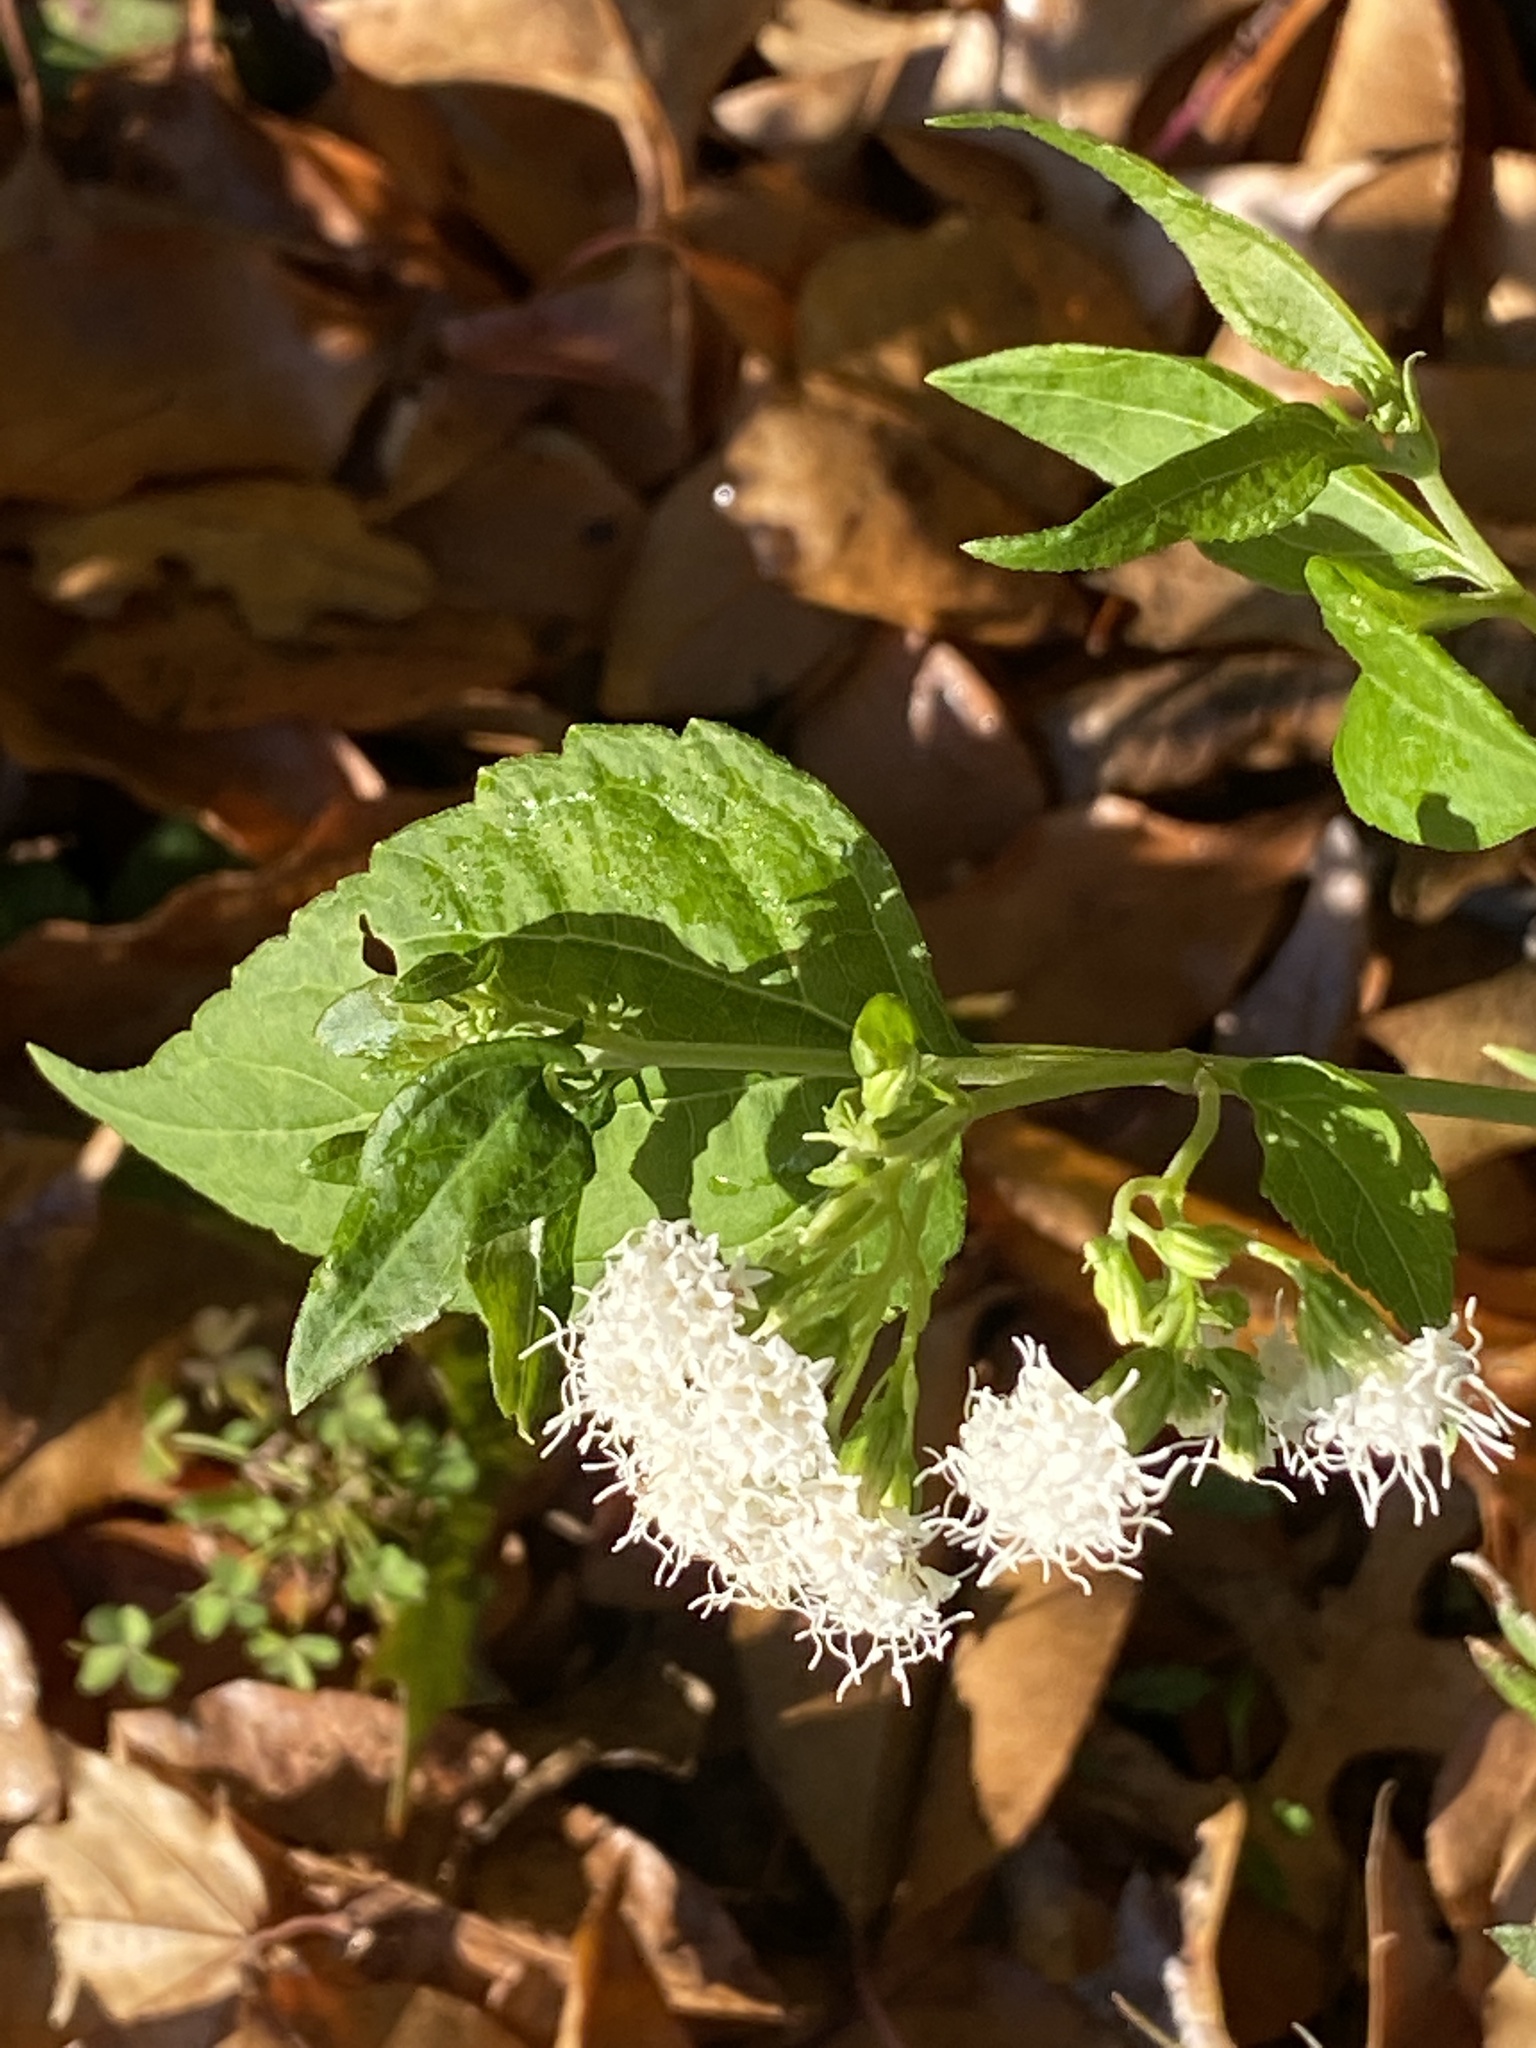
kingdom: Plantae
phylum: Tracheophyta
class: Magnoliopsida
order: Asterales
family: Asteraceae
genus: Ageratina
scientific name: Ageratina altissima
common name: White snakeroot
